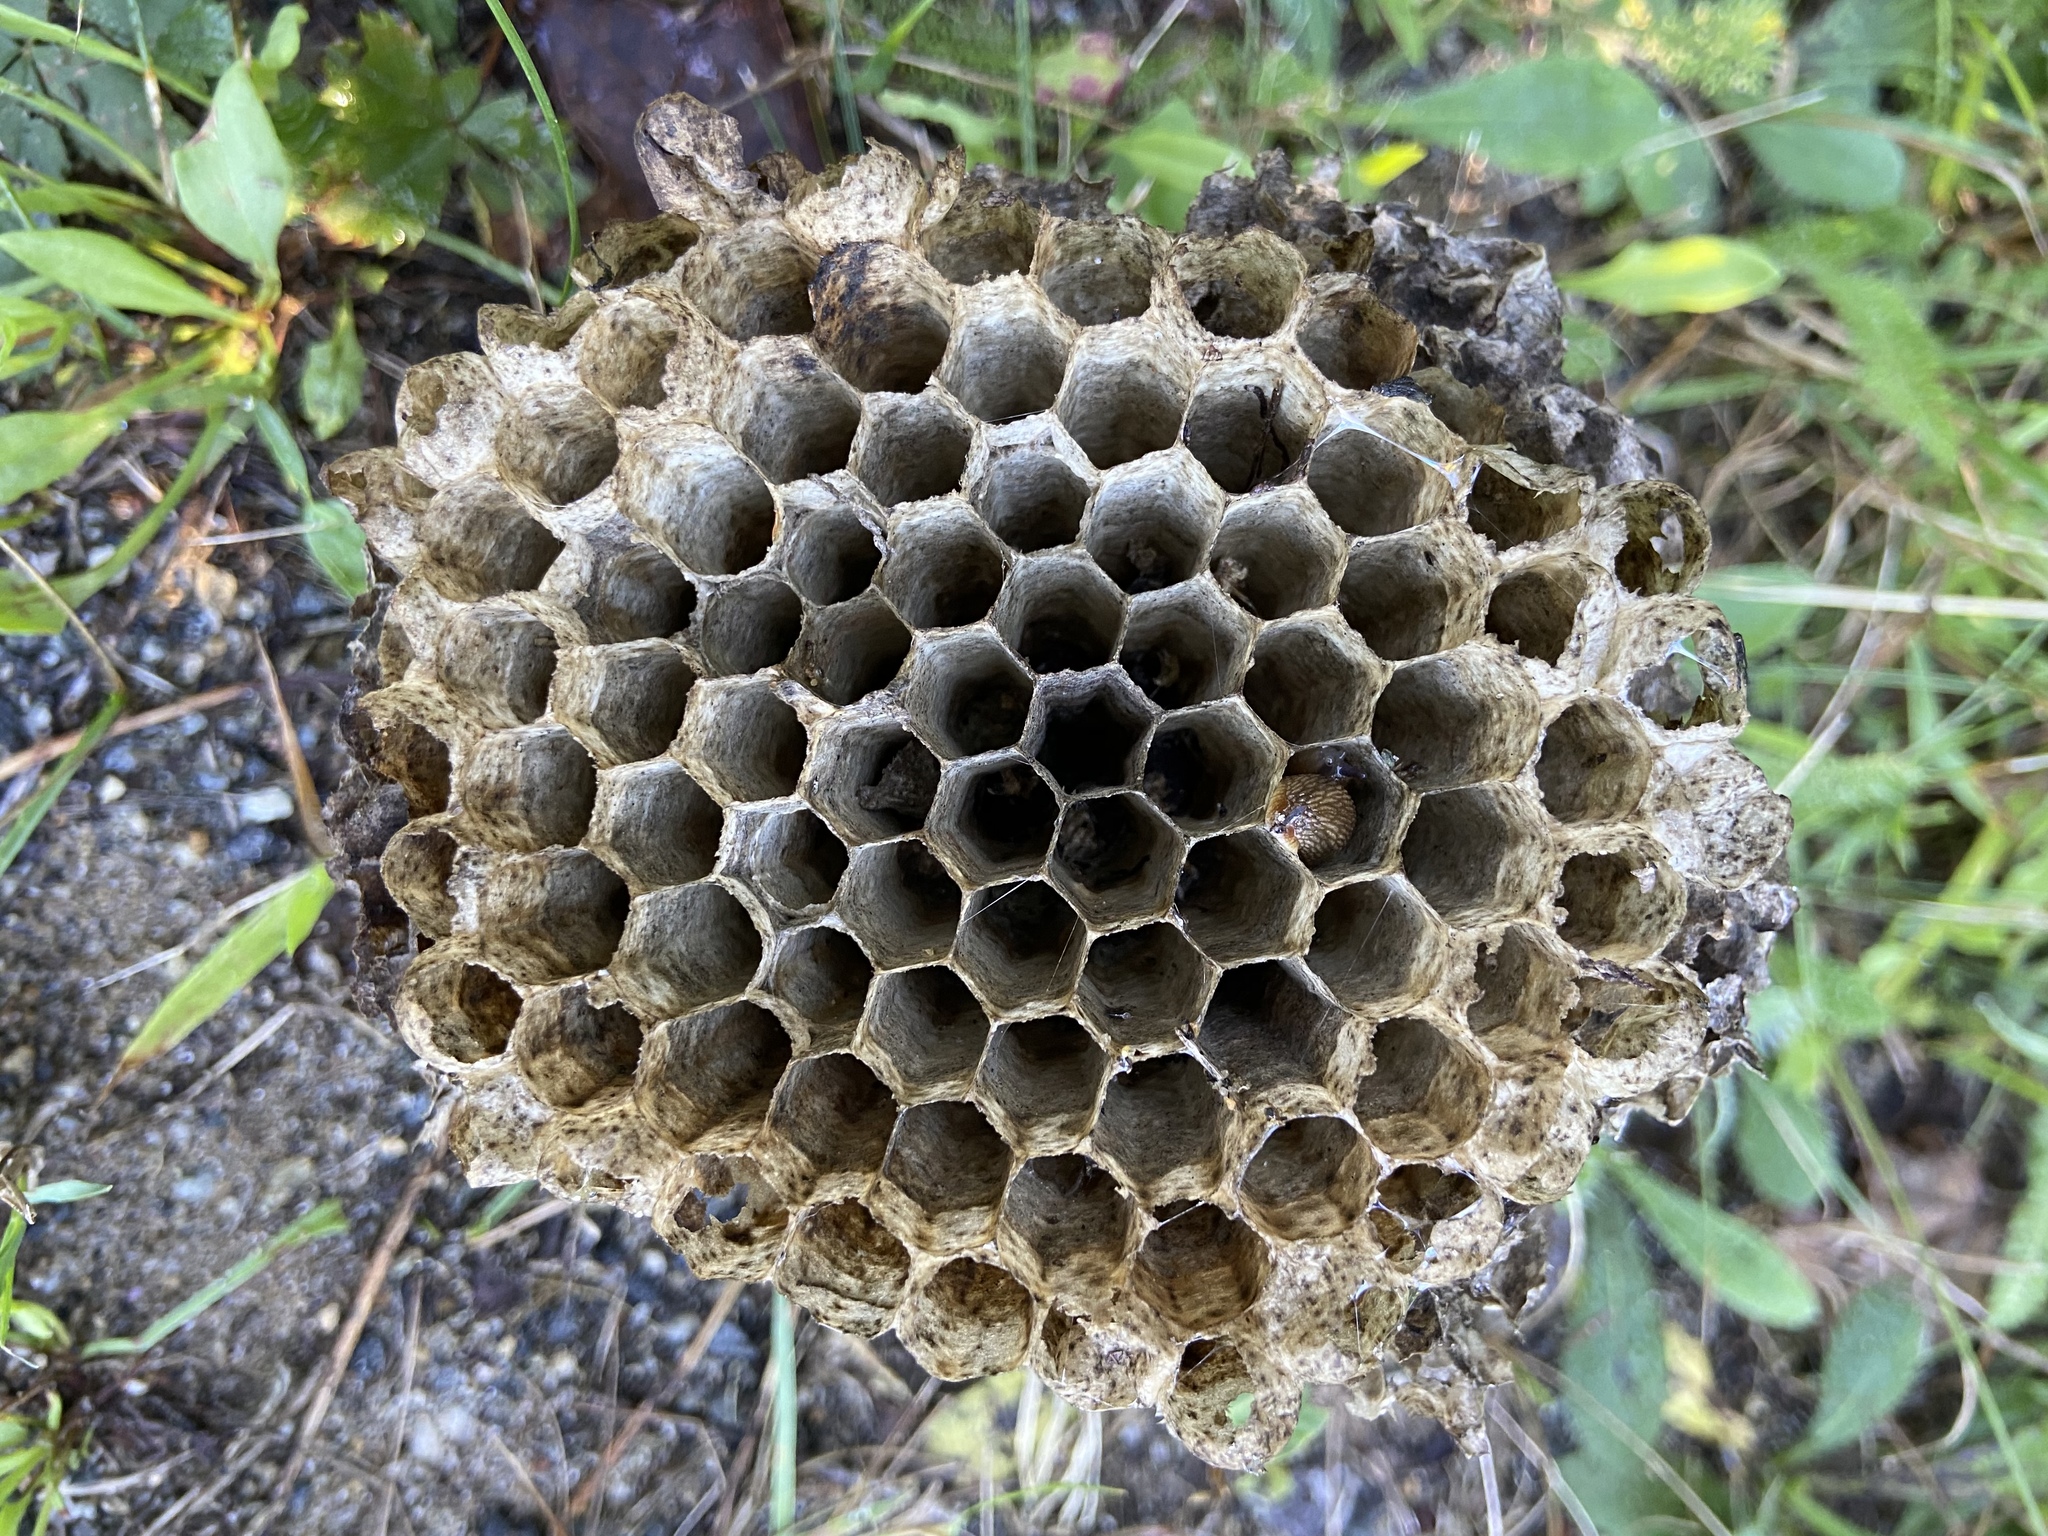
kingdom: Animalia
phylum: Arthropoda
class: Insecta
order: Hymenoptera
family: Eumenidae
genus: Polistes
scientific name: Polistes
